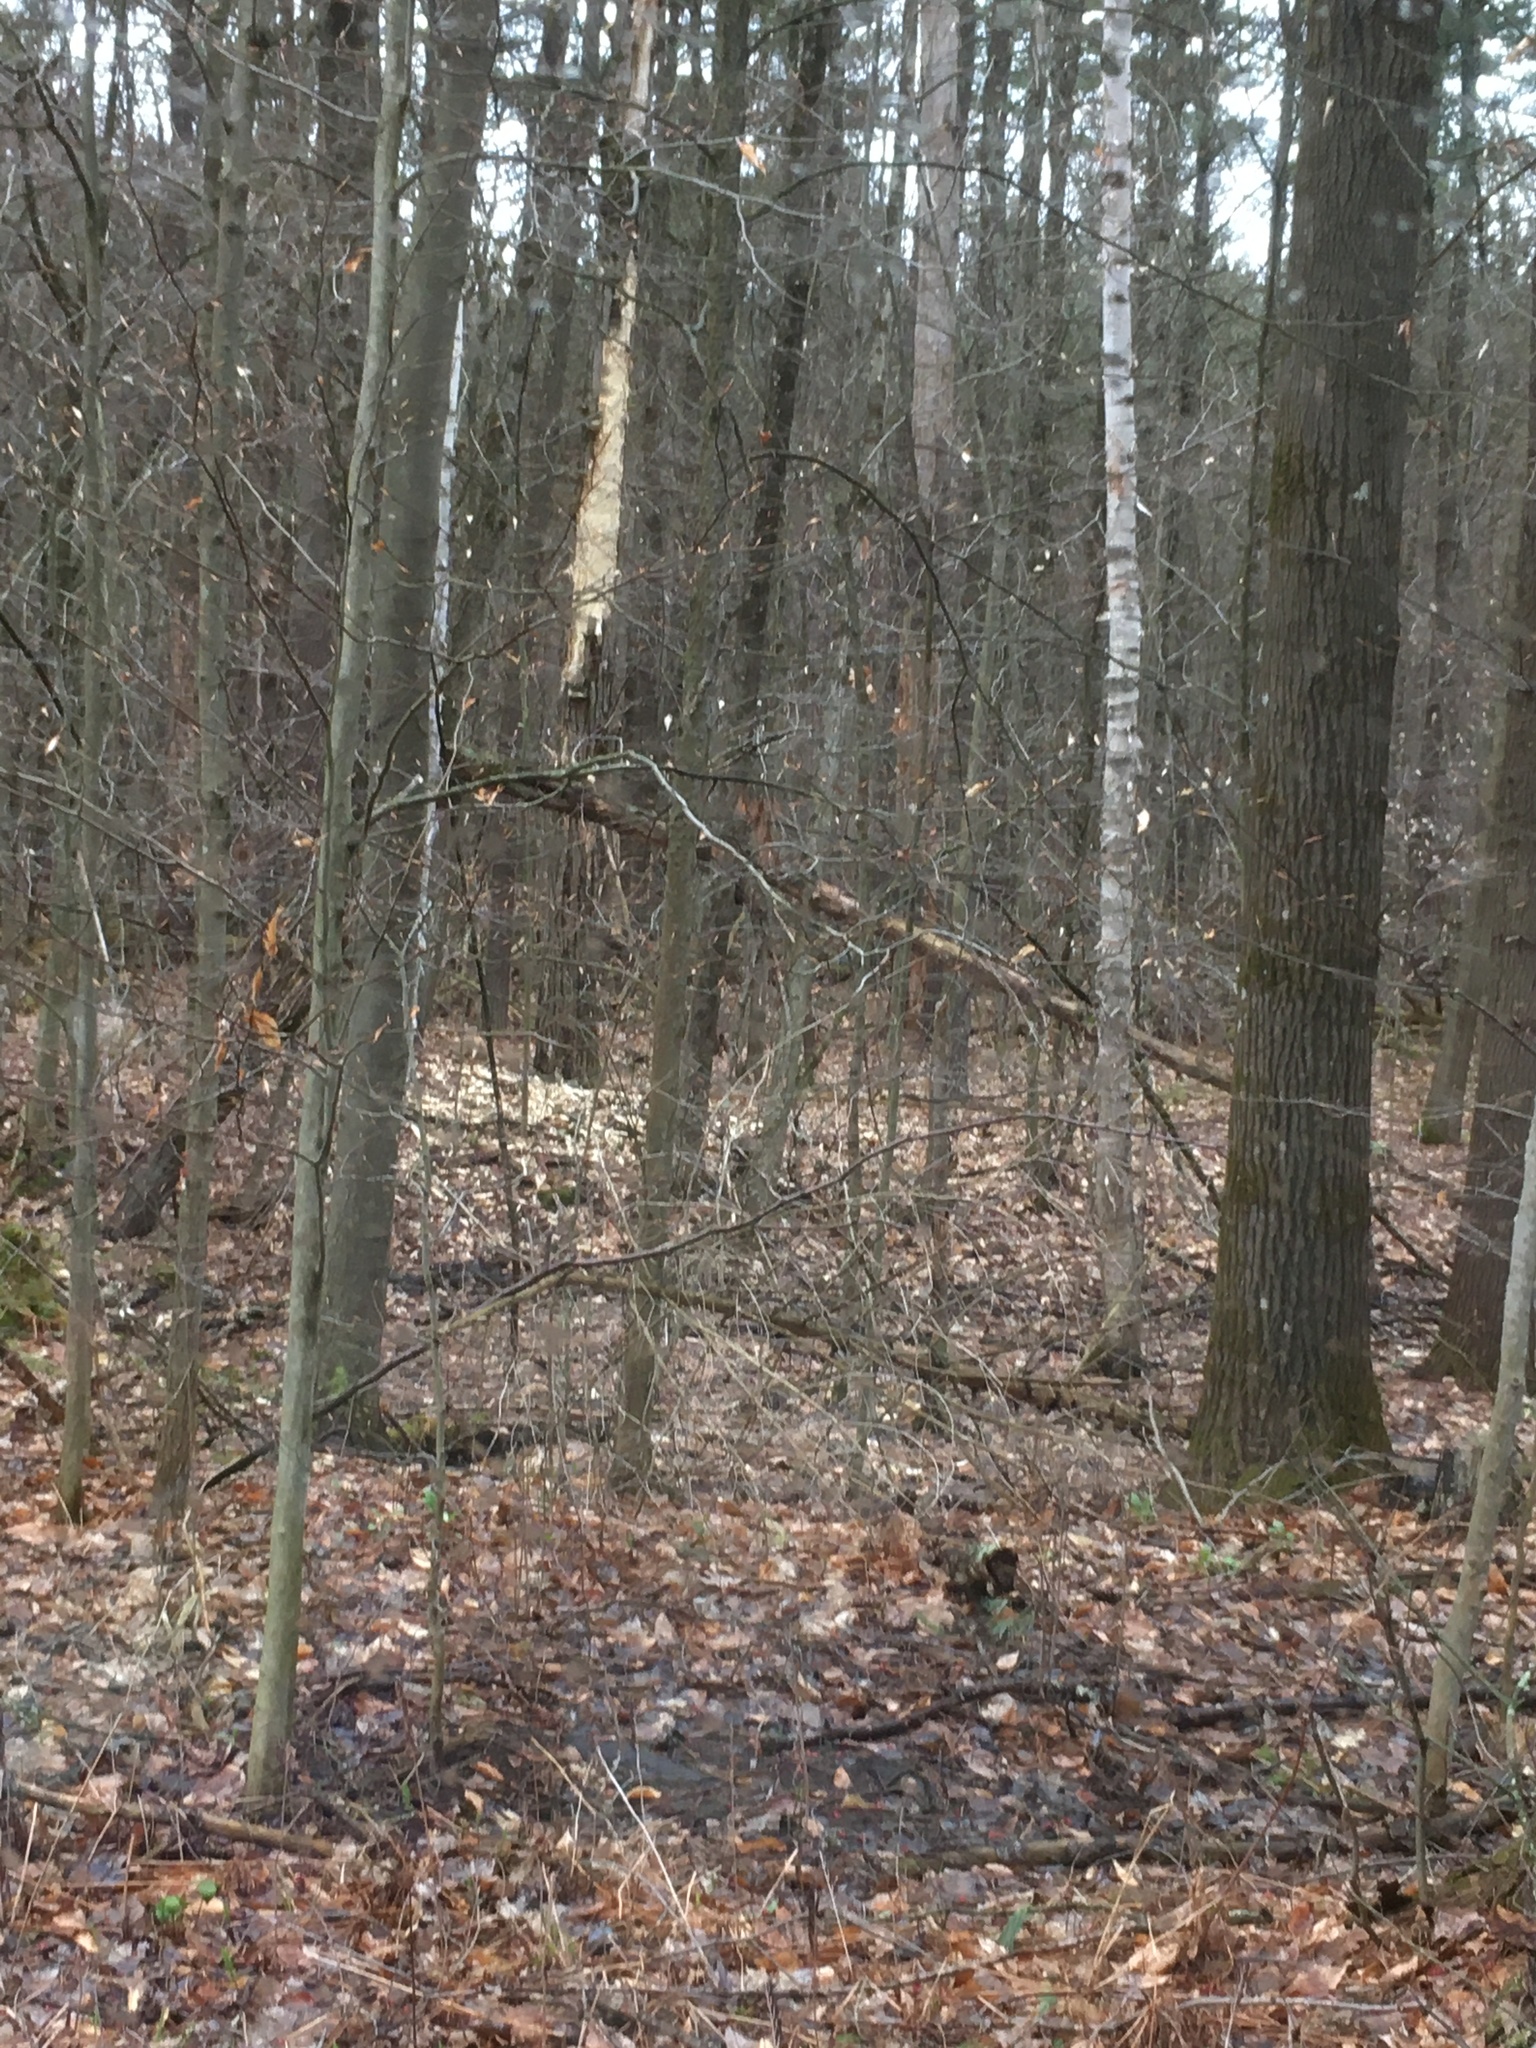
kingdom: Plantae
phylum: Tracheophyta
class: Magnoliopsida
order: Fagales
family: Betulaceae
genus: Betula
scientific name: Betula papyrifera
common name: Paper birch
